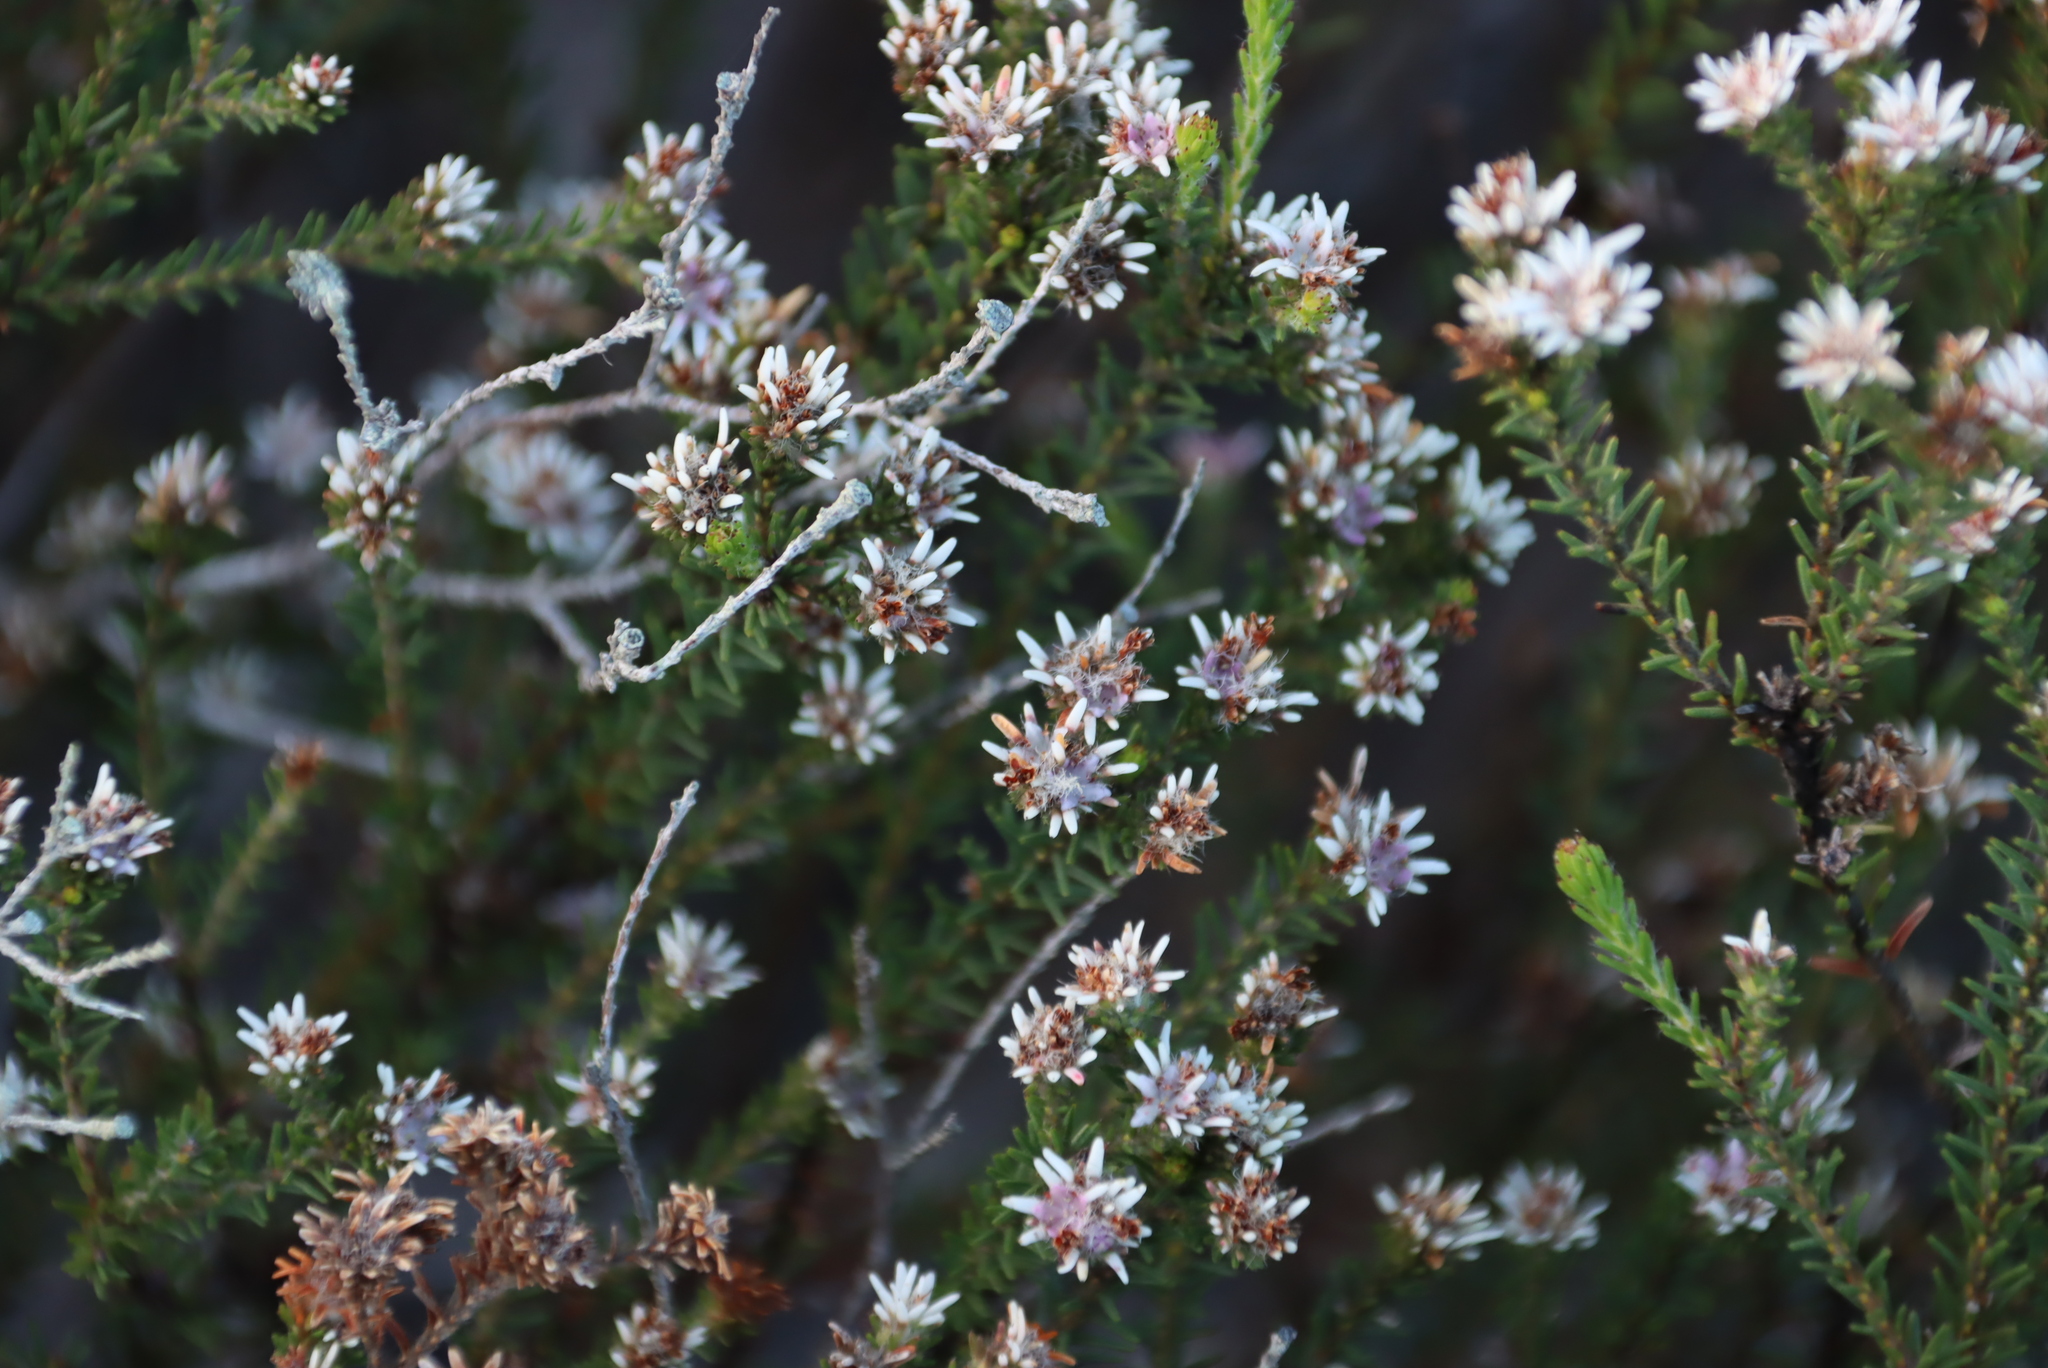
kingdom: Plantae
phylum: Tracheophyta
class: Magnoliopsida
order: Bruniales
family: Bruniaceae
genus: Staavia
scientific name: Staavia radiata
